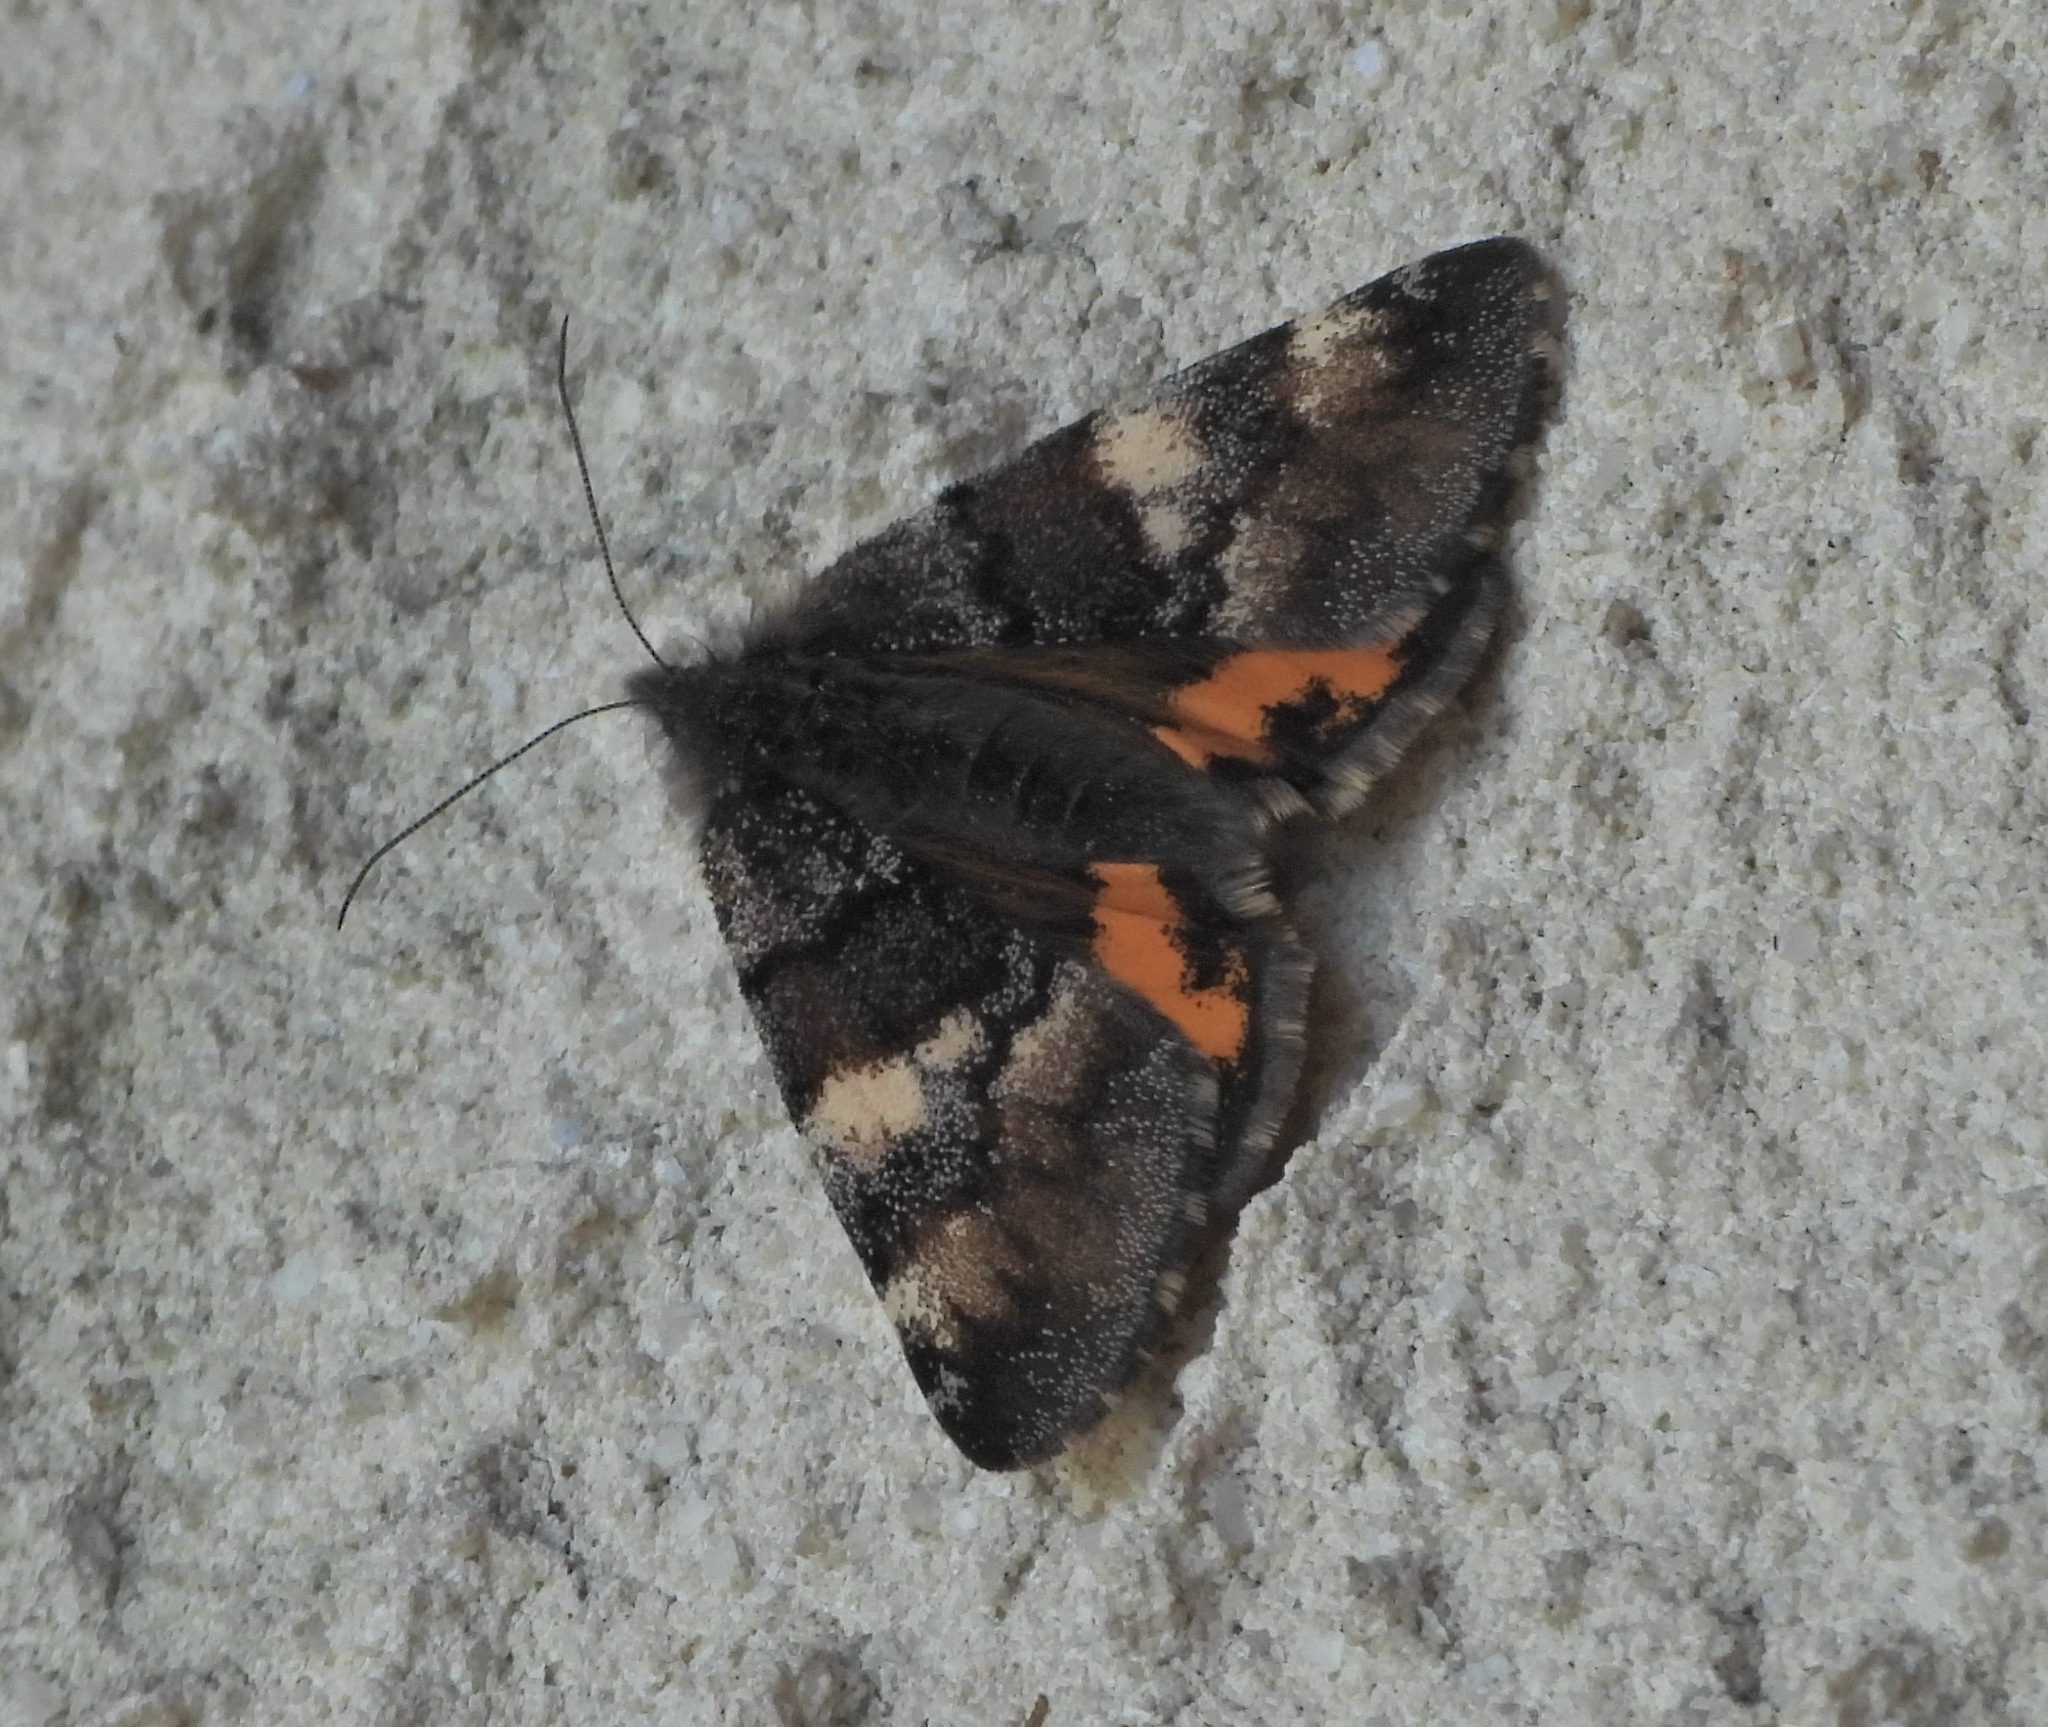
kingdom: Animalia
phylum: Arthropoda
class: Insecta
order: Lepidoptera
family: Geometridae
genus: Archiearis
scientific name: Archiearis parthenias
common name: Orange underwing
